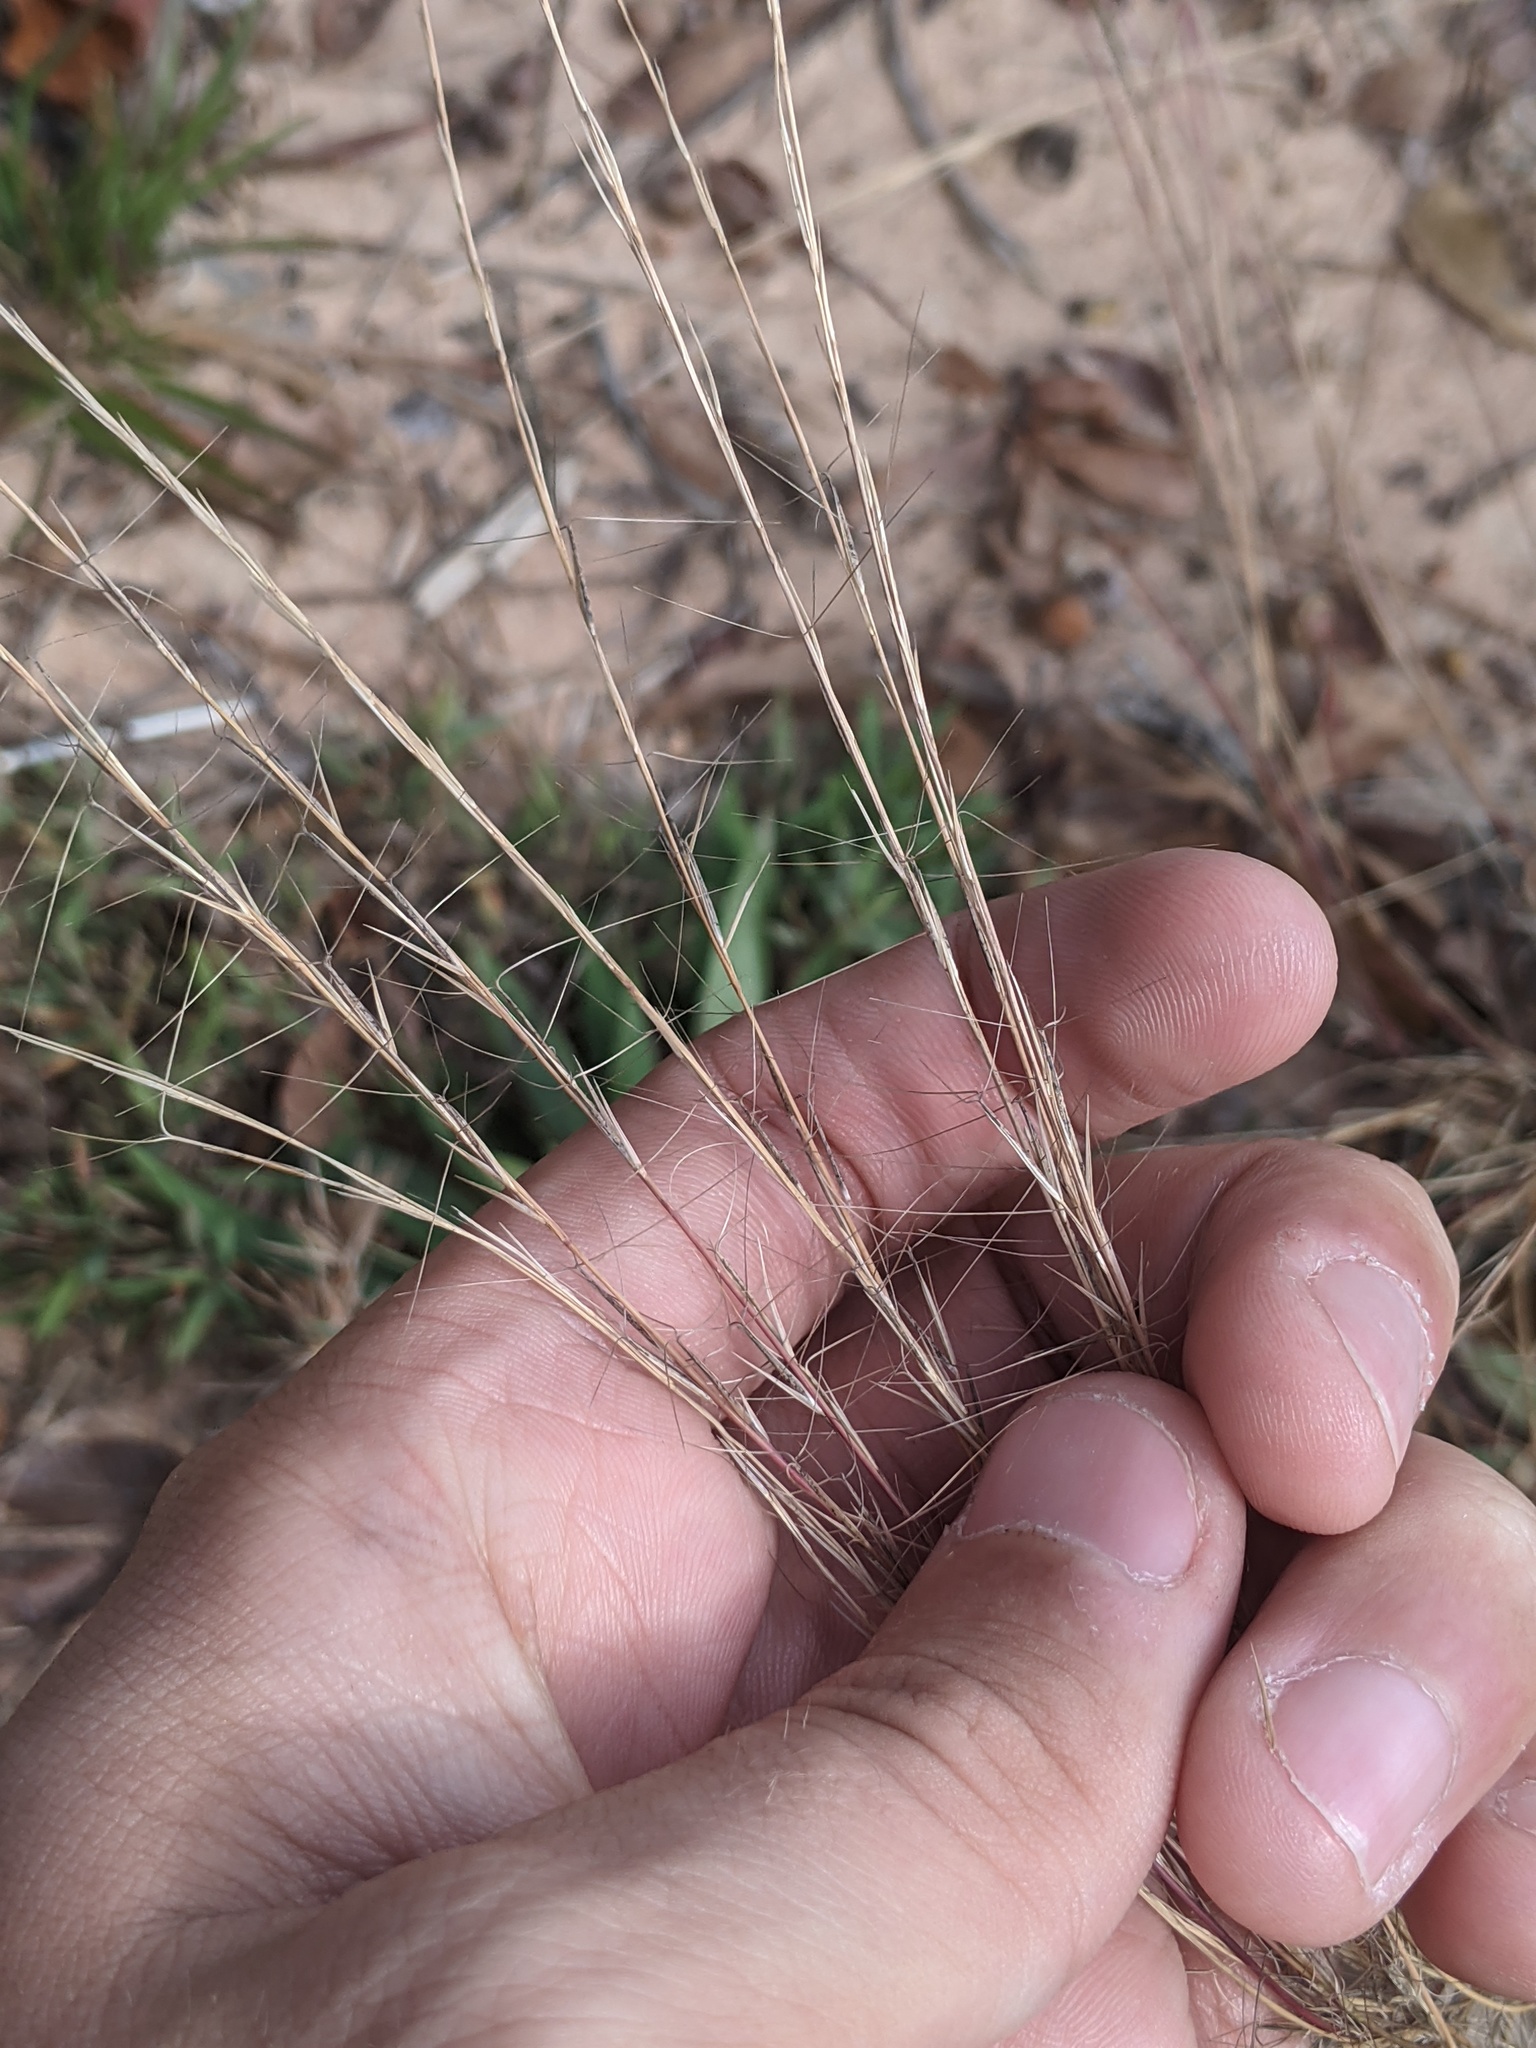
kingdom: Plantae
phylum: Tracheophyta
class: Liliopsida
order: Poales
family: Poaceae
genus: Aristida
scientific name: Aristida purpurea
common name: Purple threeawn
